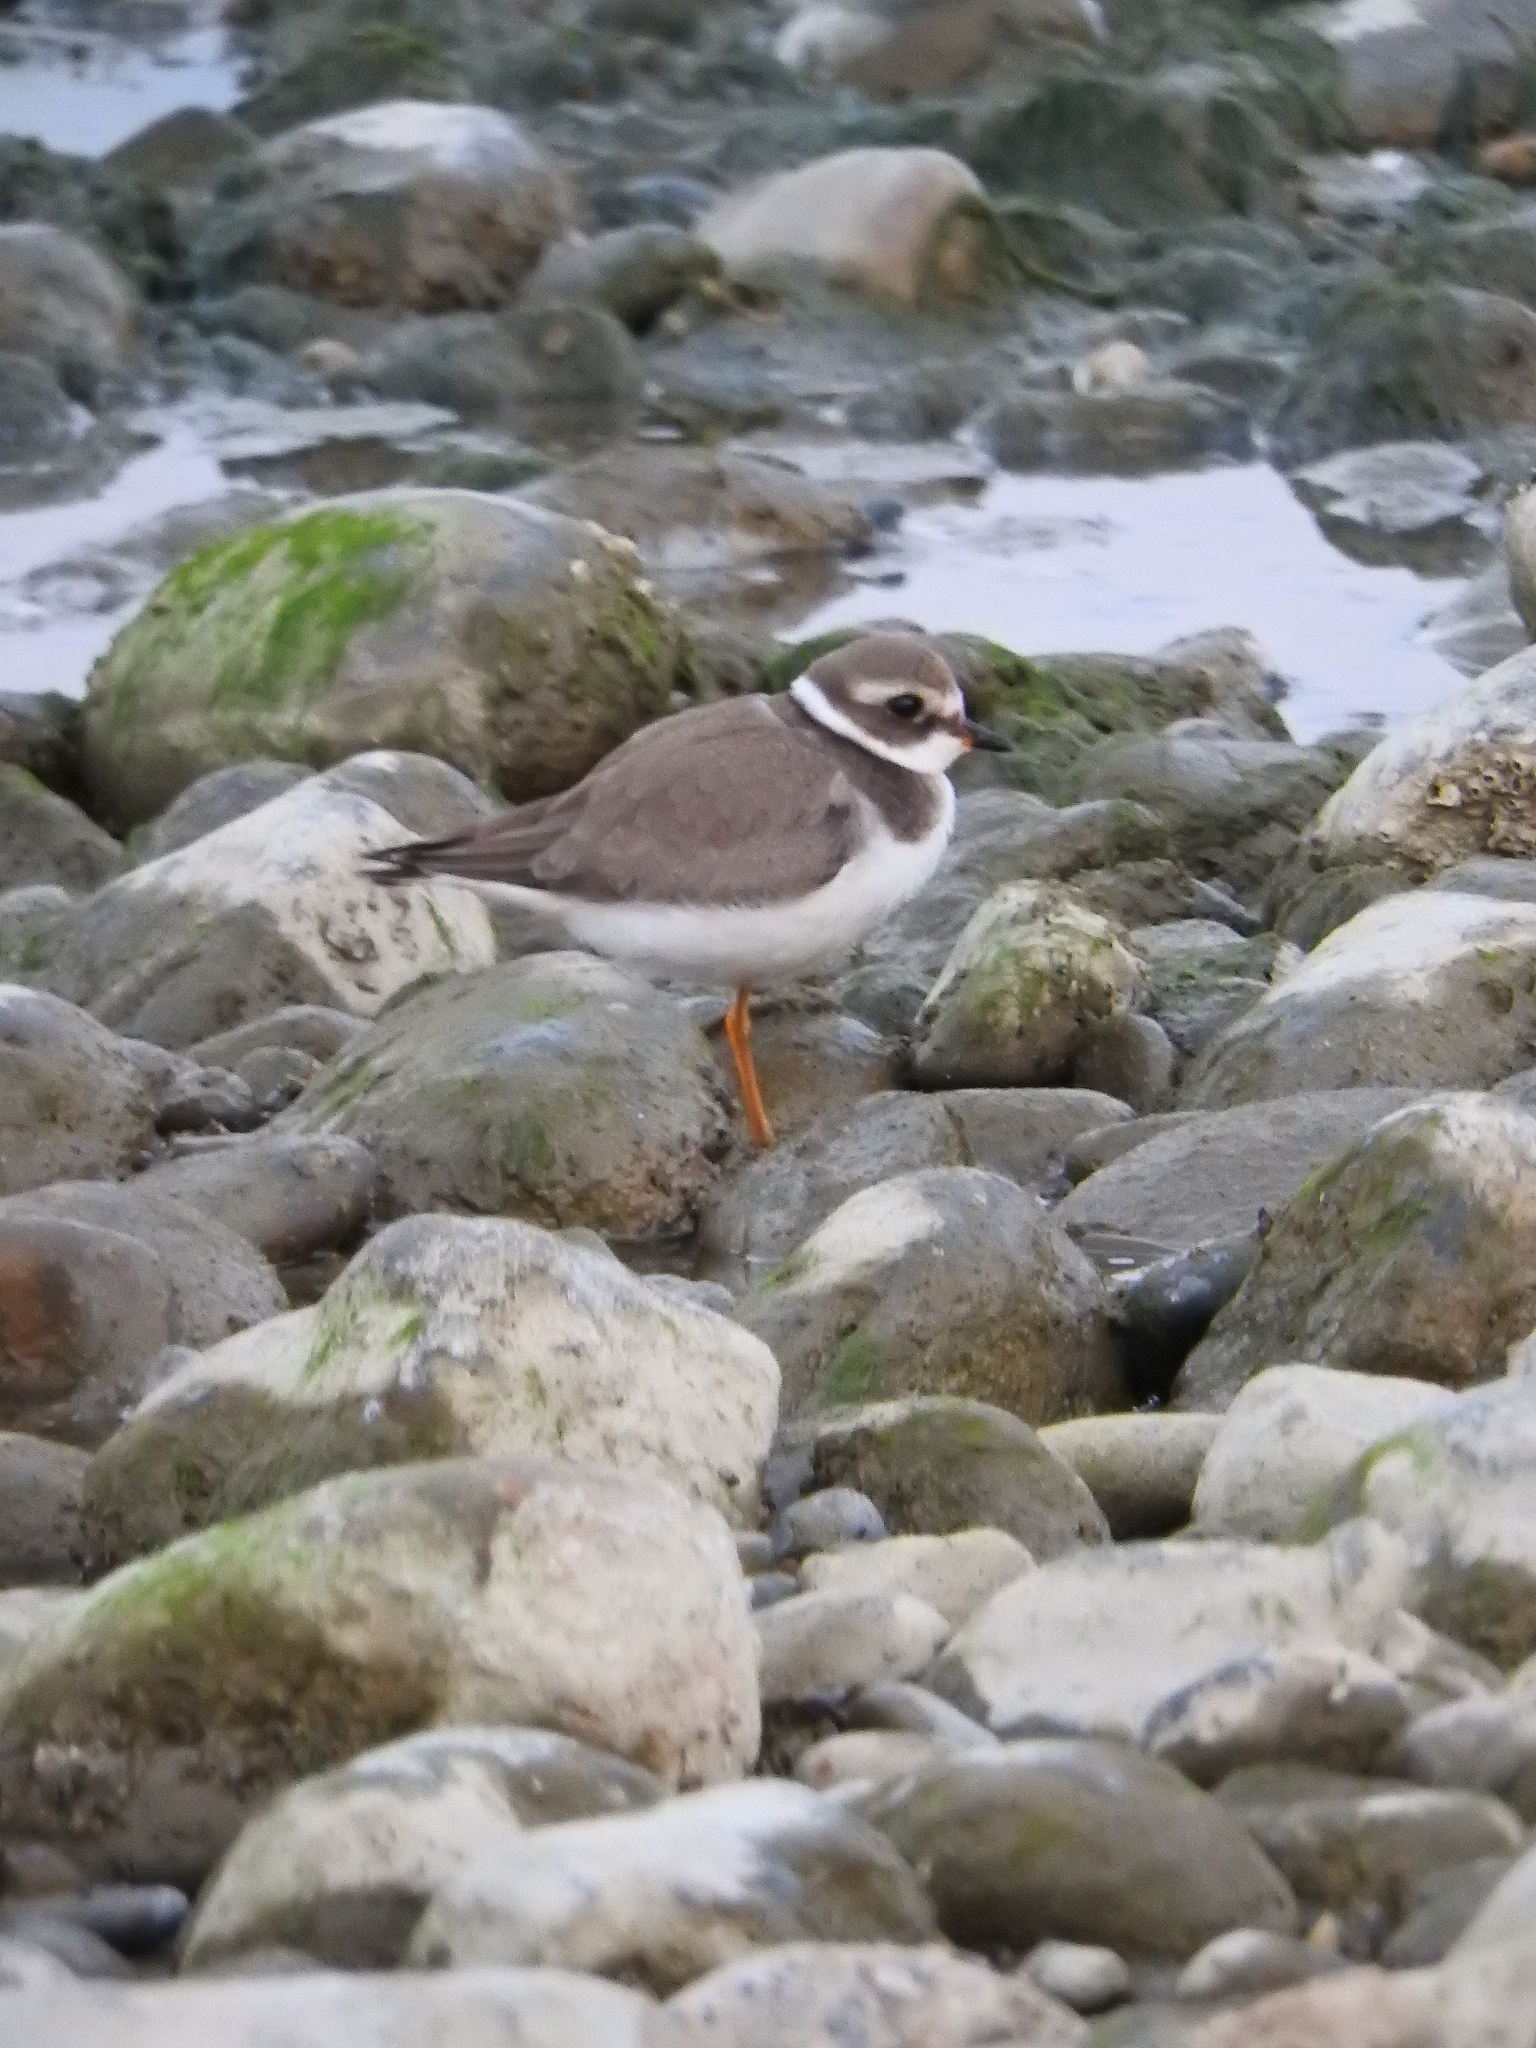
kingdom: Animalia
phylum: Chordata
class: Aves
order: Charadriiformes
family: Charadriidae
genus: Charadrius
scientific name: Charadrius dubius
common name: Little ringed plover
